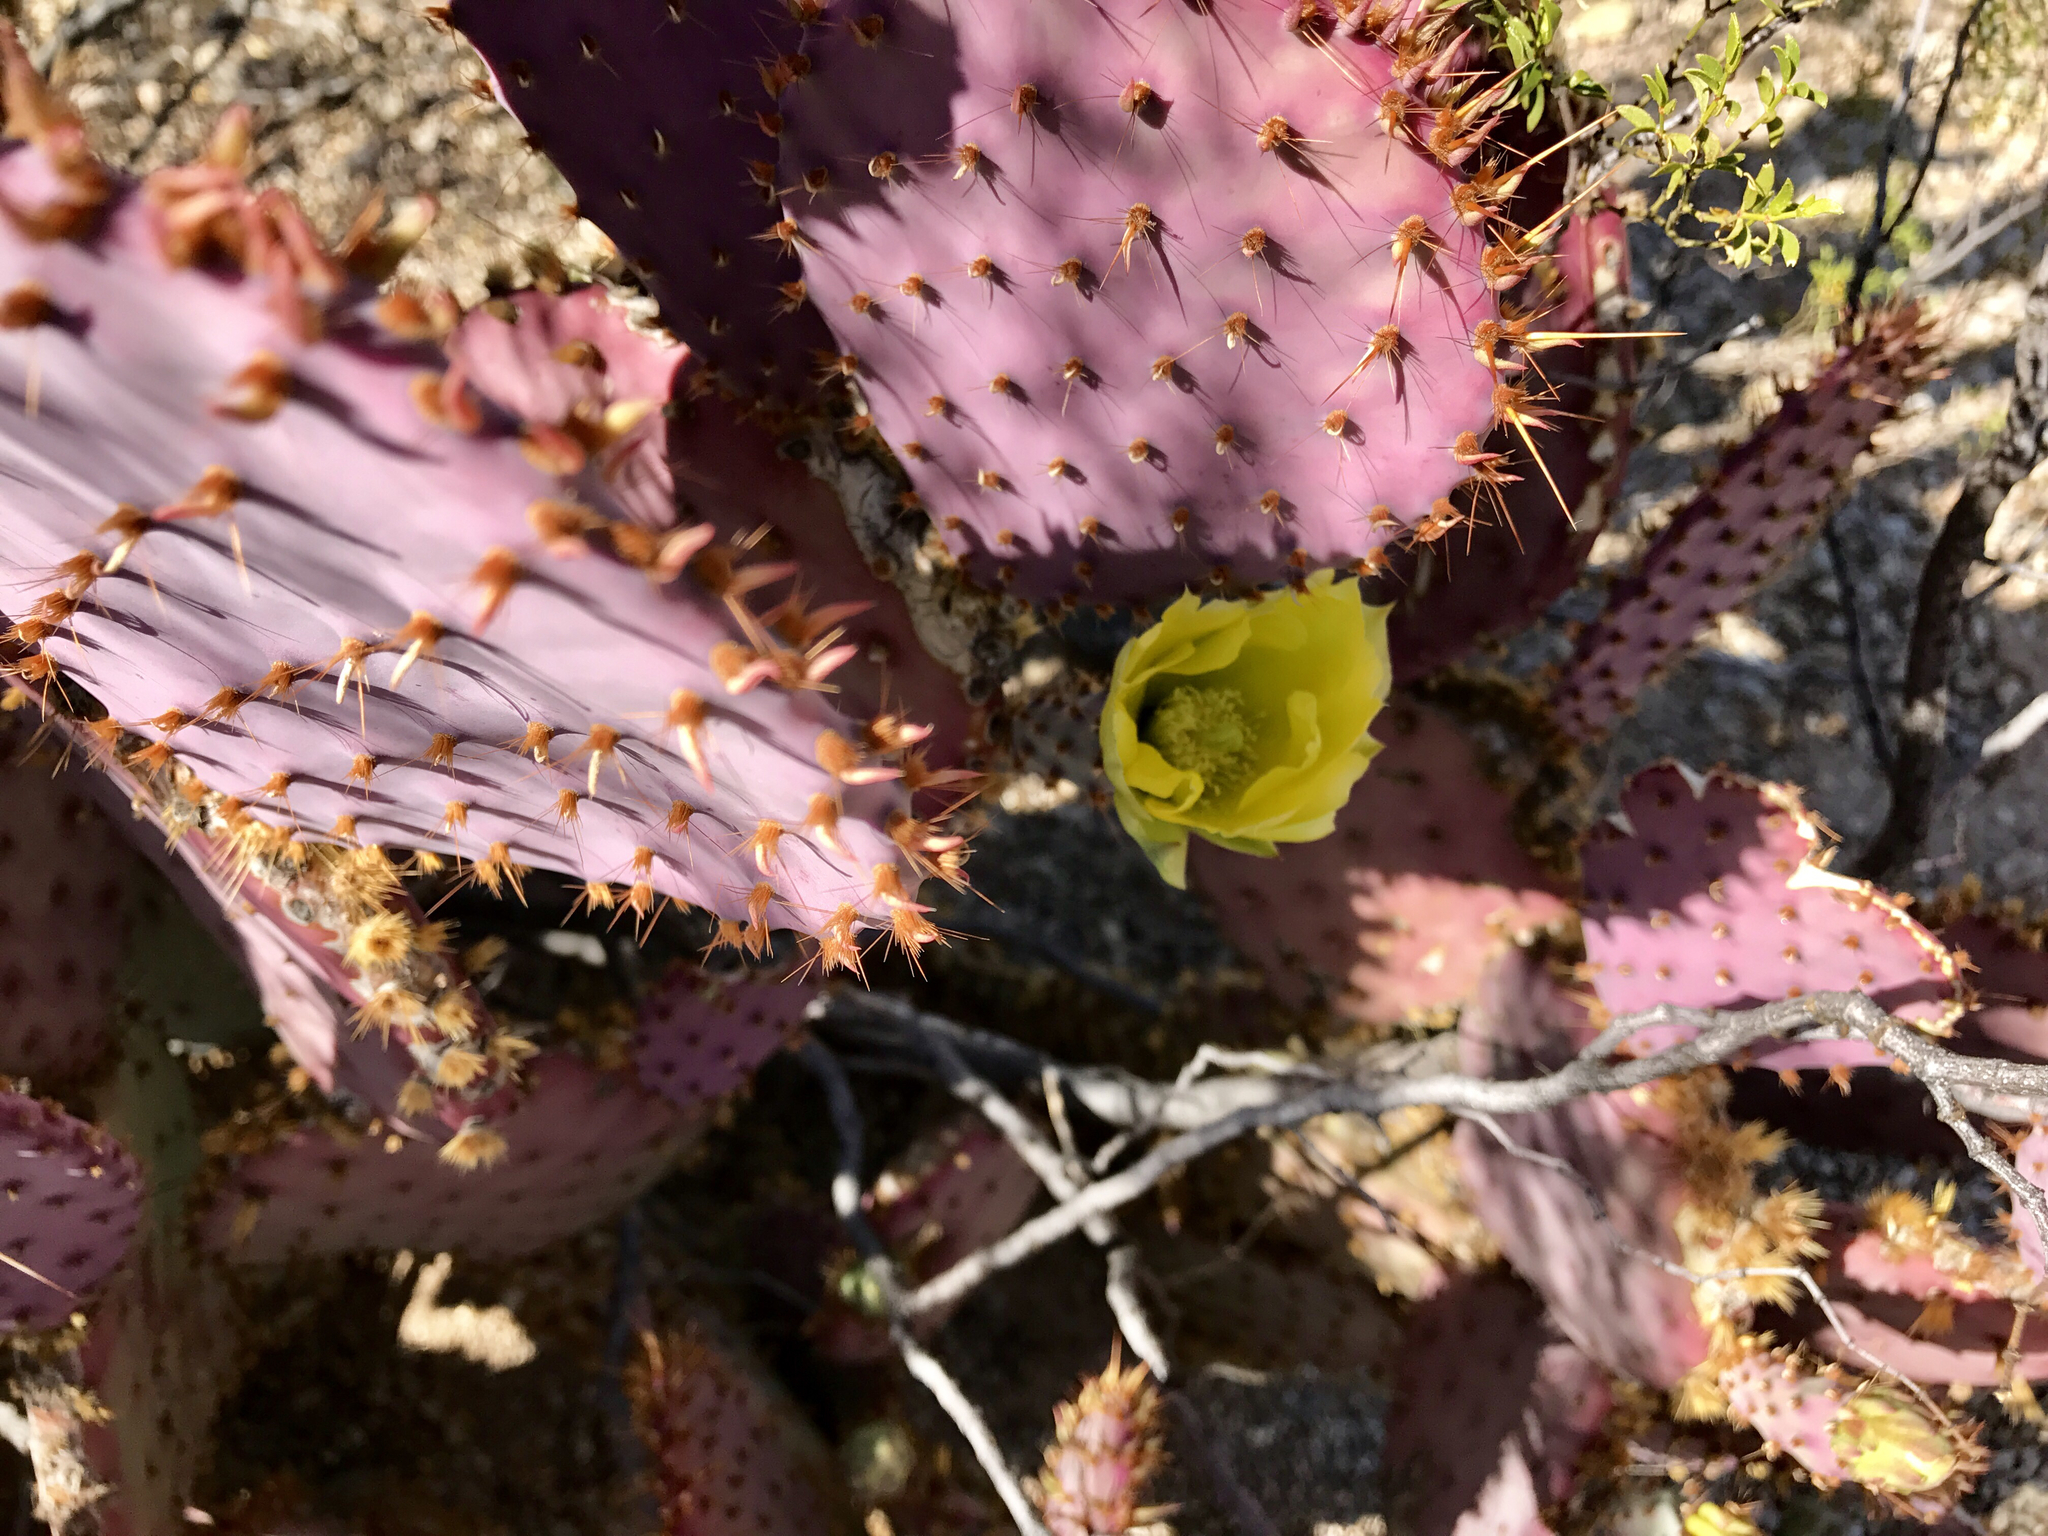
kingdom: Plantae
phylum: Tracheophyta
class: Magnoliopsida
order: Caryophyllales
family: Cactaceae
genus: Opuntia
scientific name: Opuntia gosseliniana
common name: Violet prickly-pear
